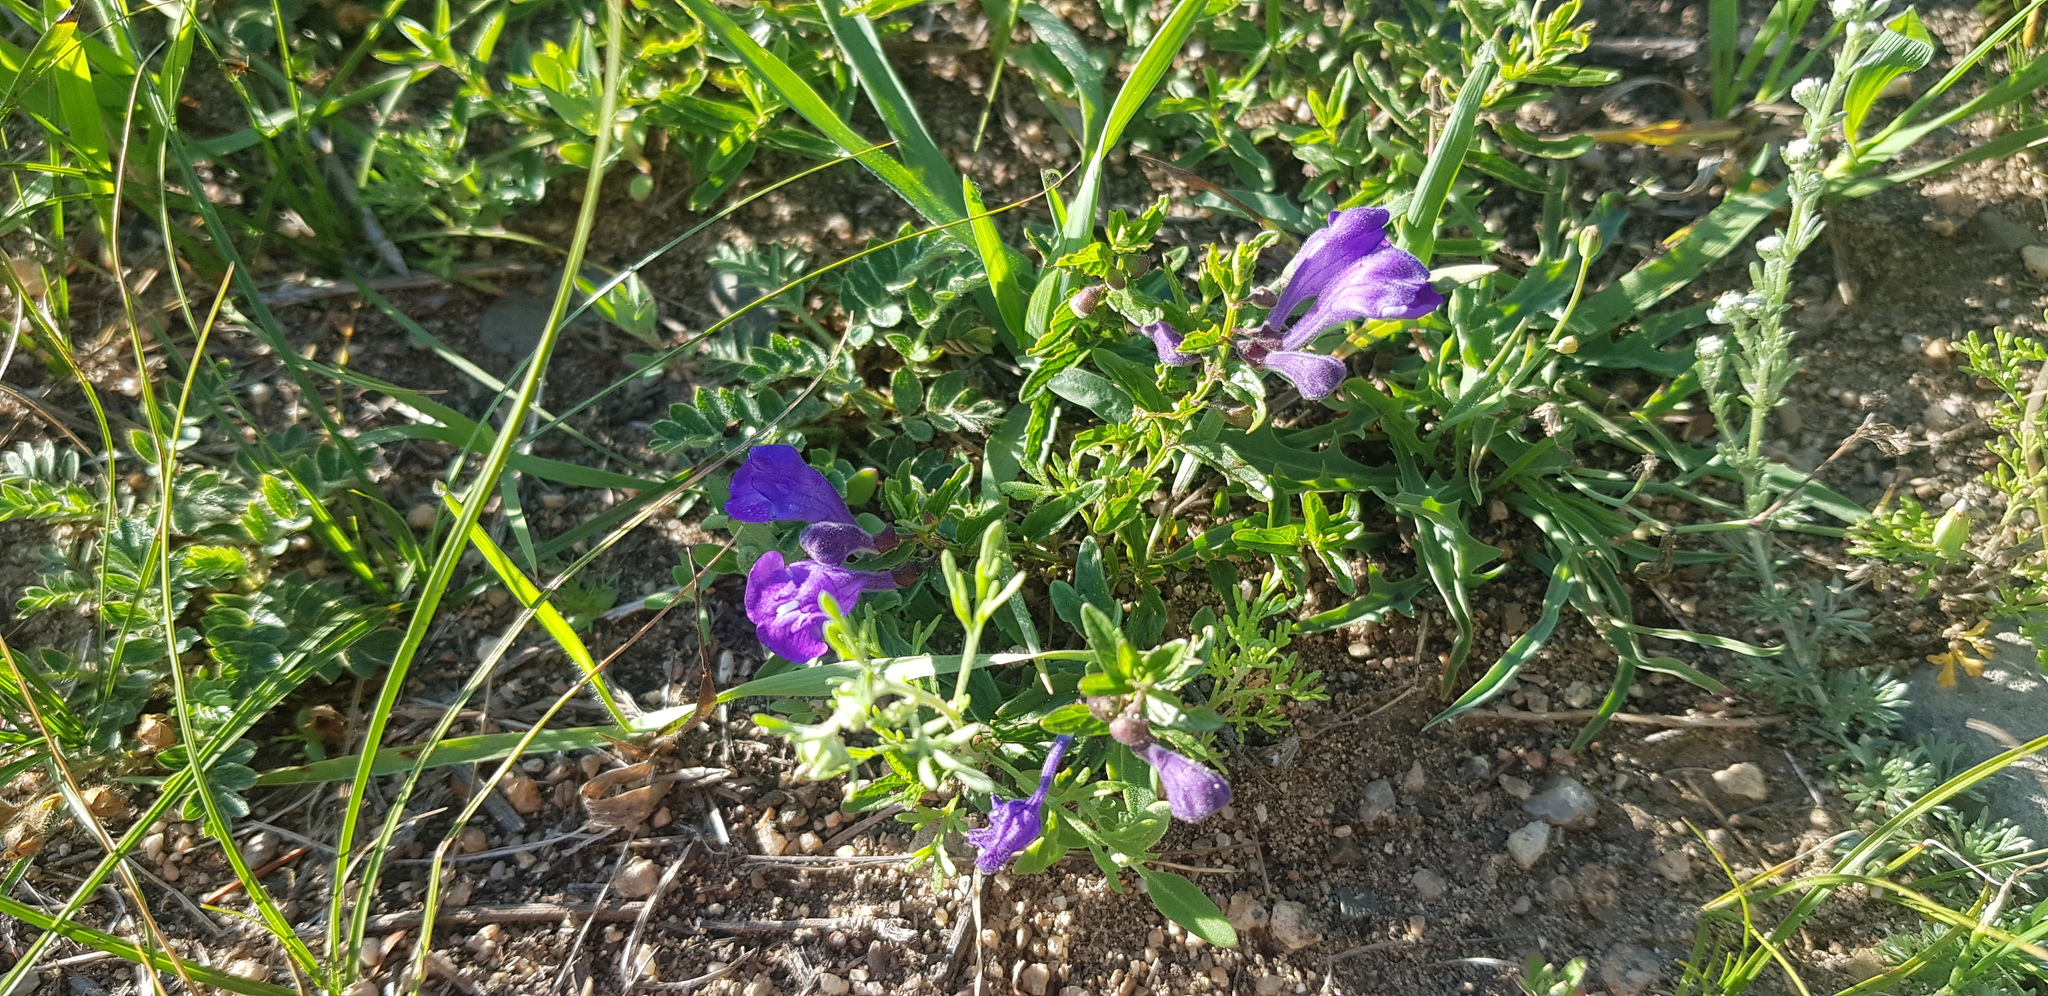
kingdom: Plantae
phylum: Tracheophyta
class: Magnoliopsida
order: Lamiales
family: Lamiaceae
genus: Scutellaria
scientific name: Scutellaria scordiifolia
